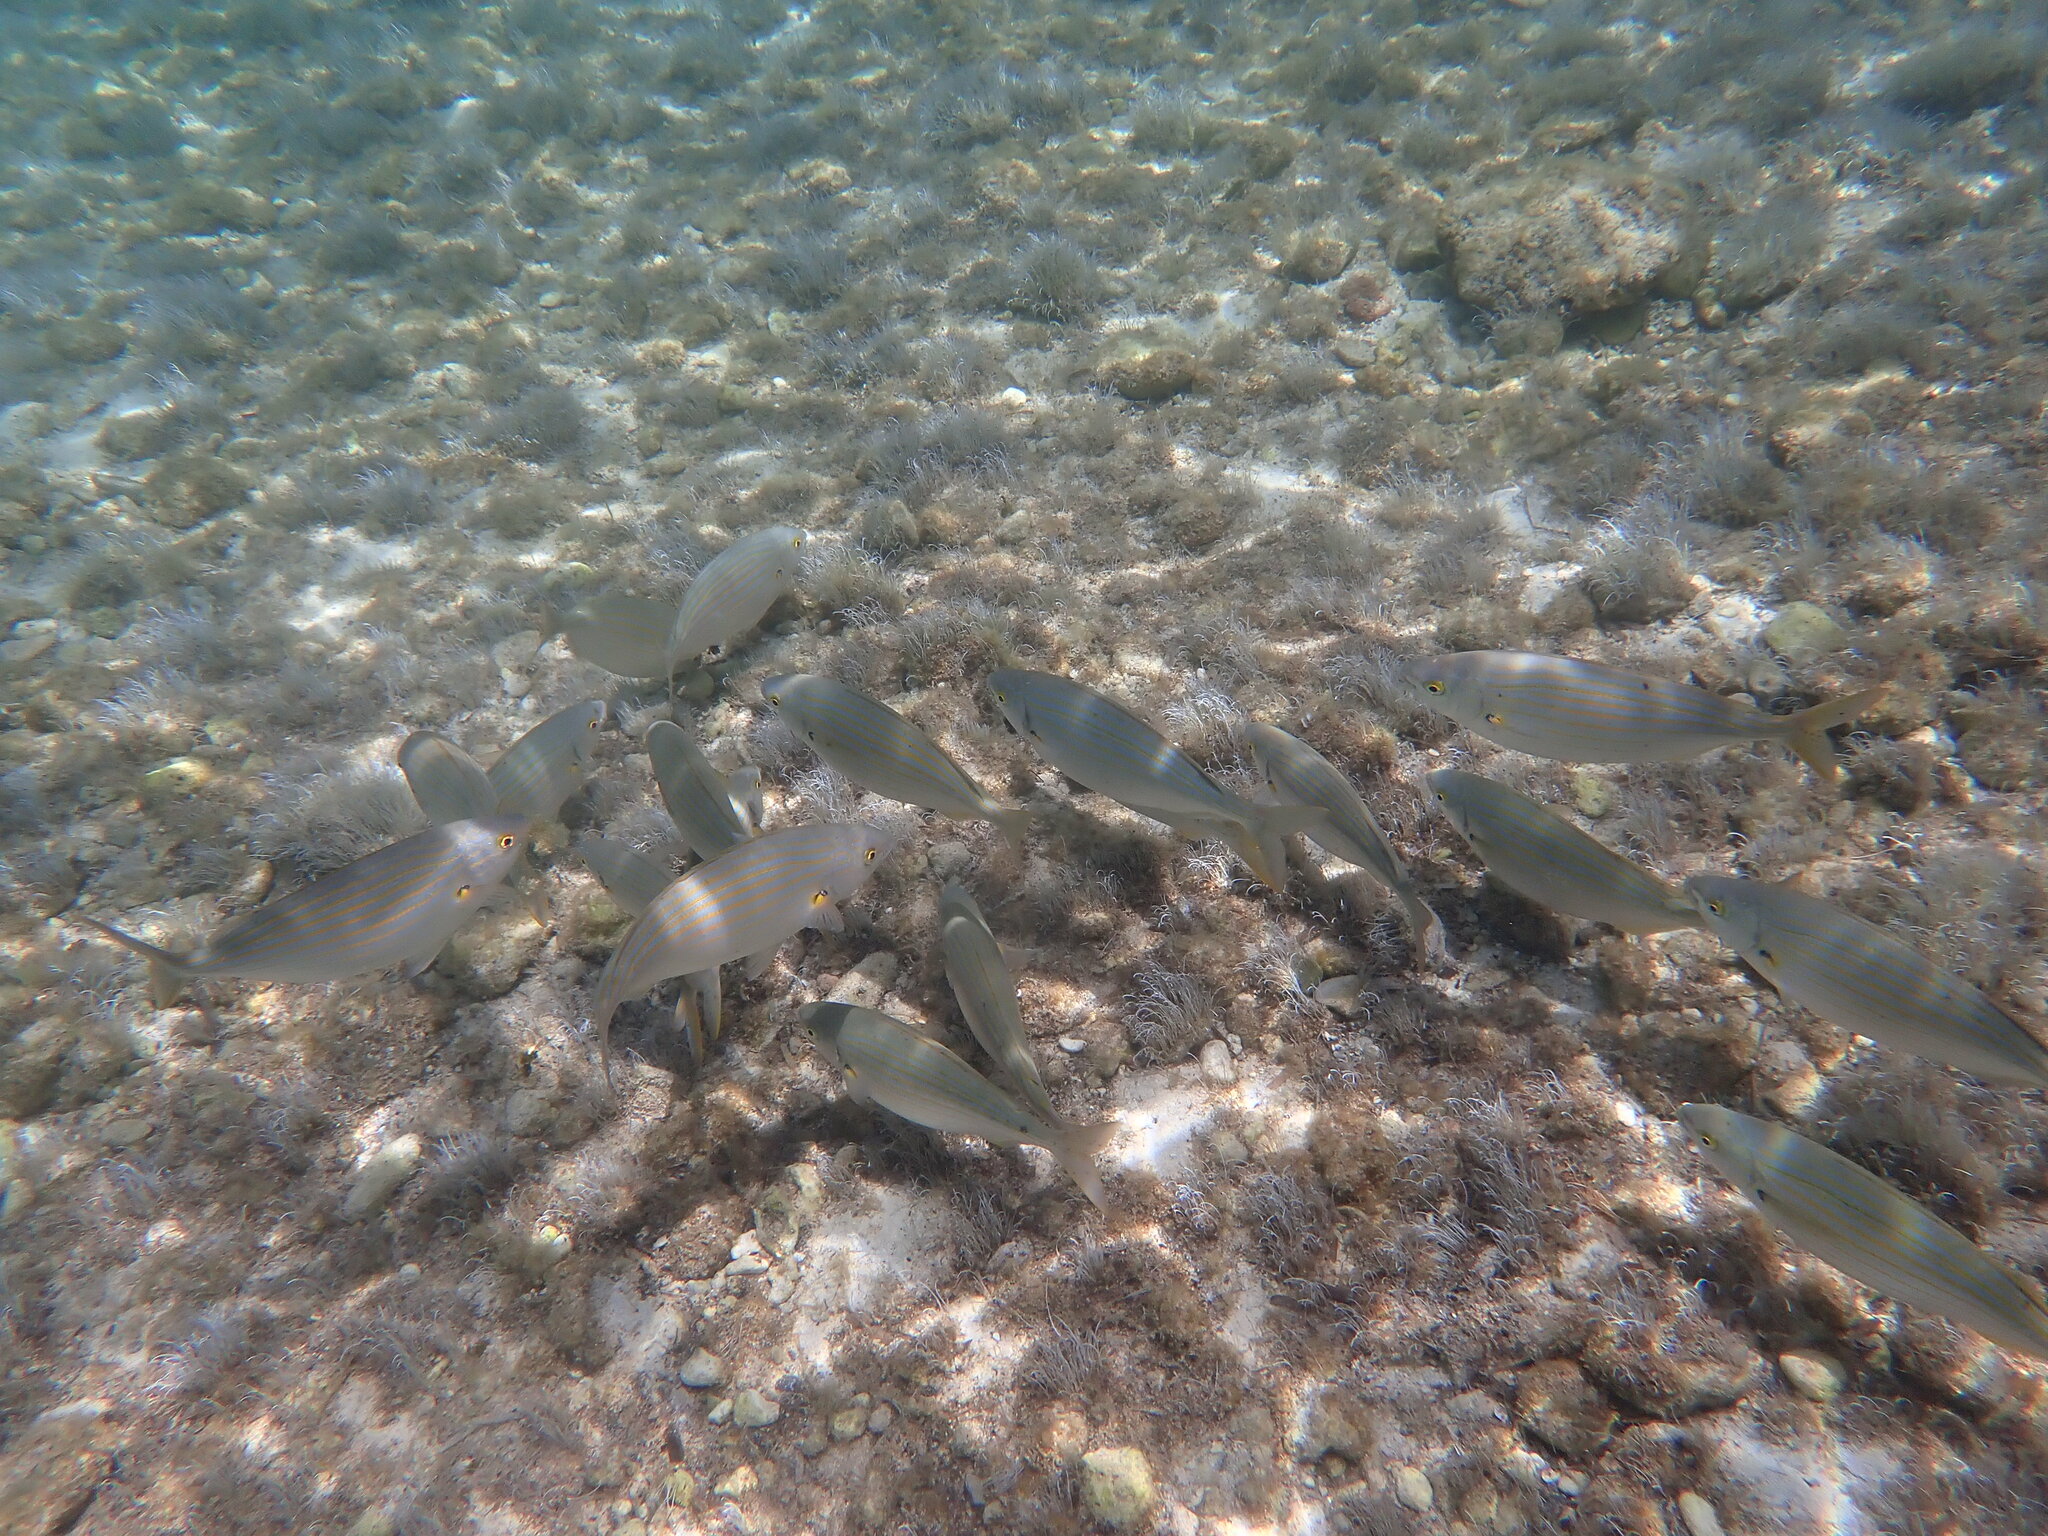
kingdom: Animalia
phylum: Chordata
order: Perciformes
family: Sparidae
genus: Sarpa
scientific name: Sarpa salpa
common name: Salema
